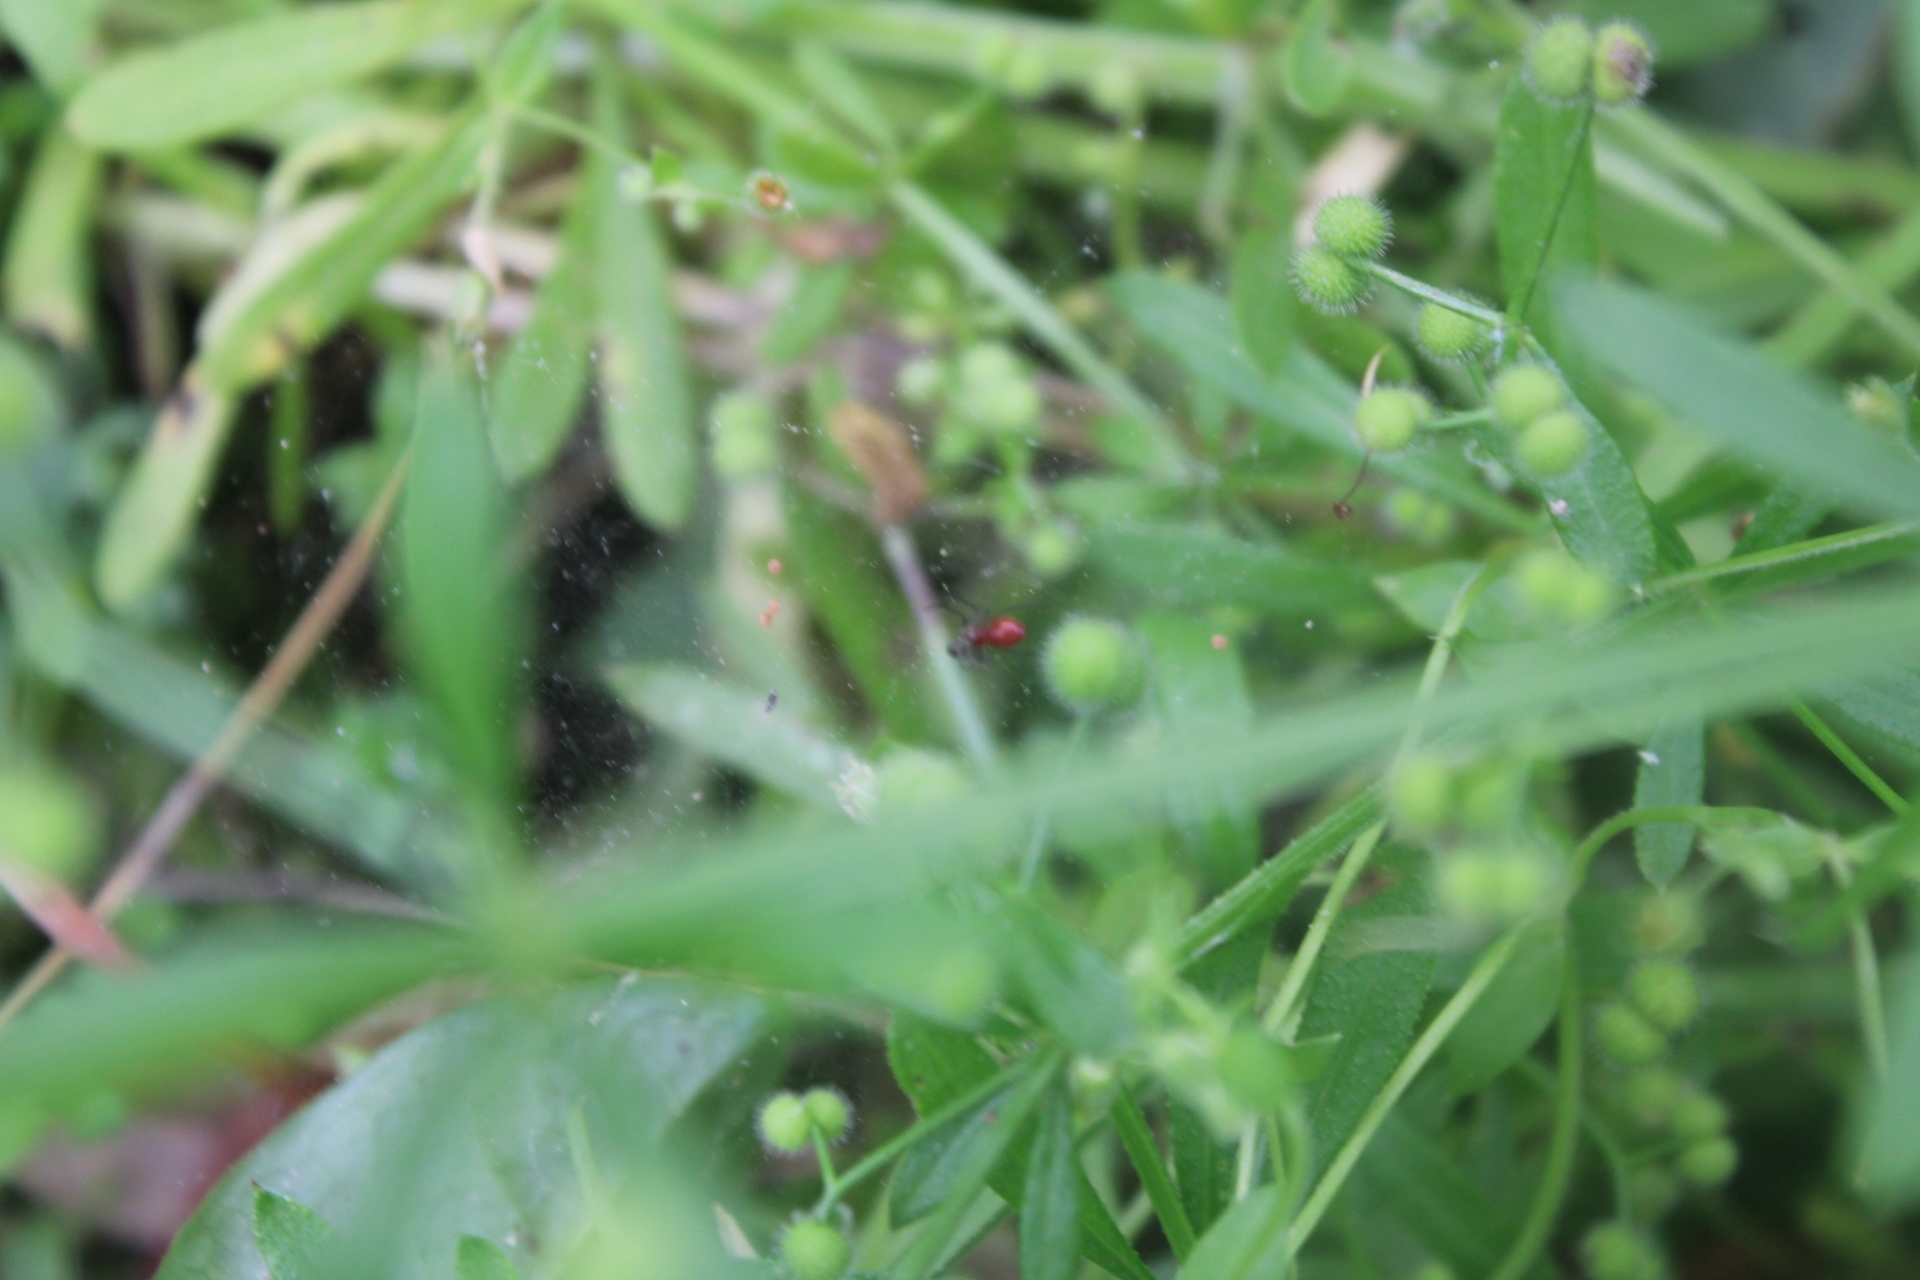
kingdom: Animalia
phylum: Arthropoda
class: Arachnida
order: Araneae
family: Linyphiidae
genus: Florinda
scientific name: Florinda coccinea
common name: Black-tailed red sheetweaver
